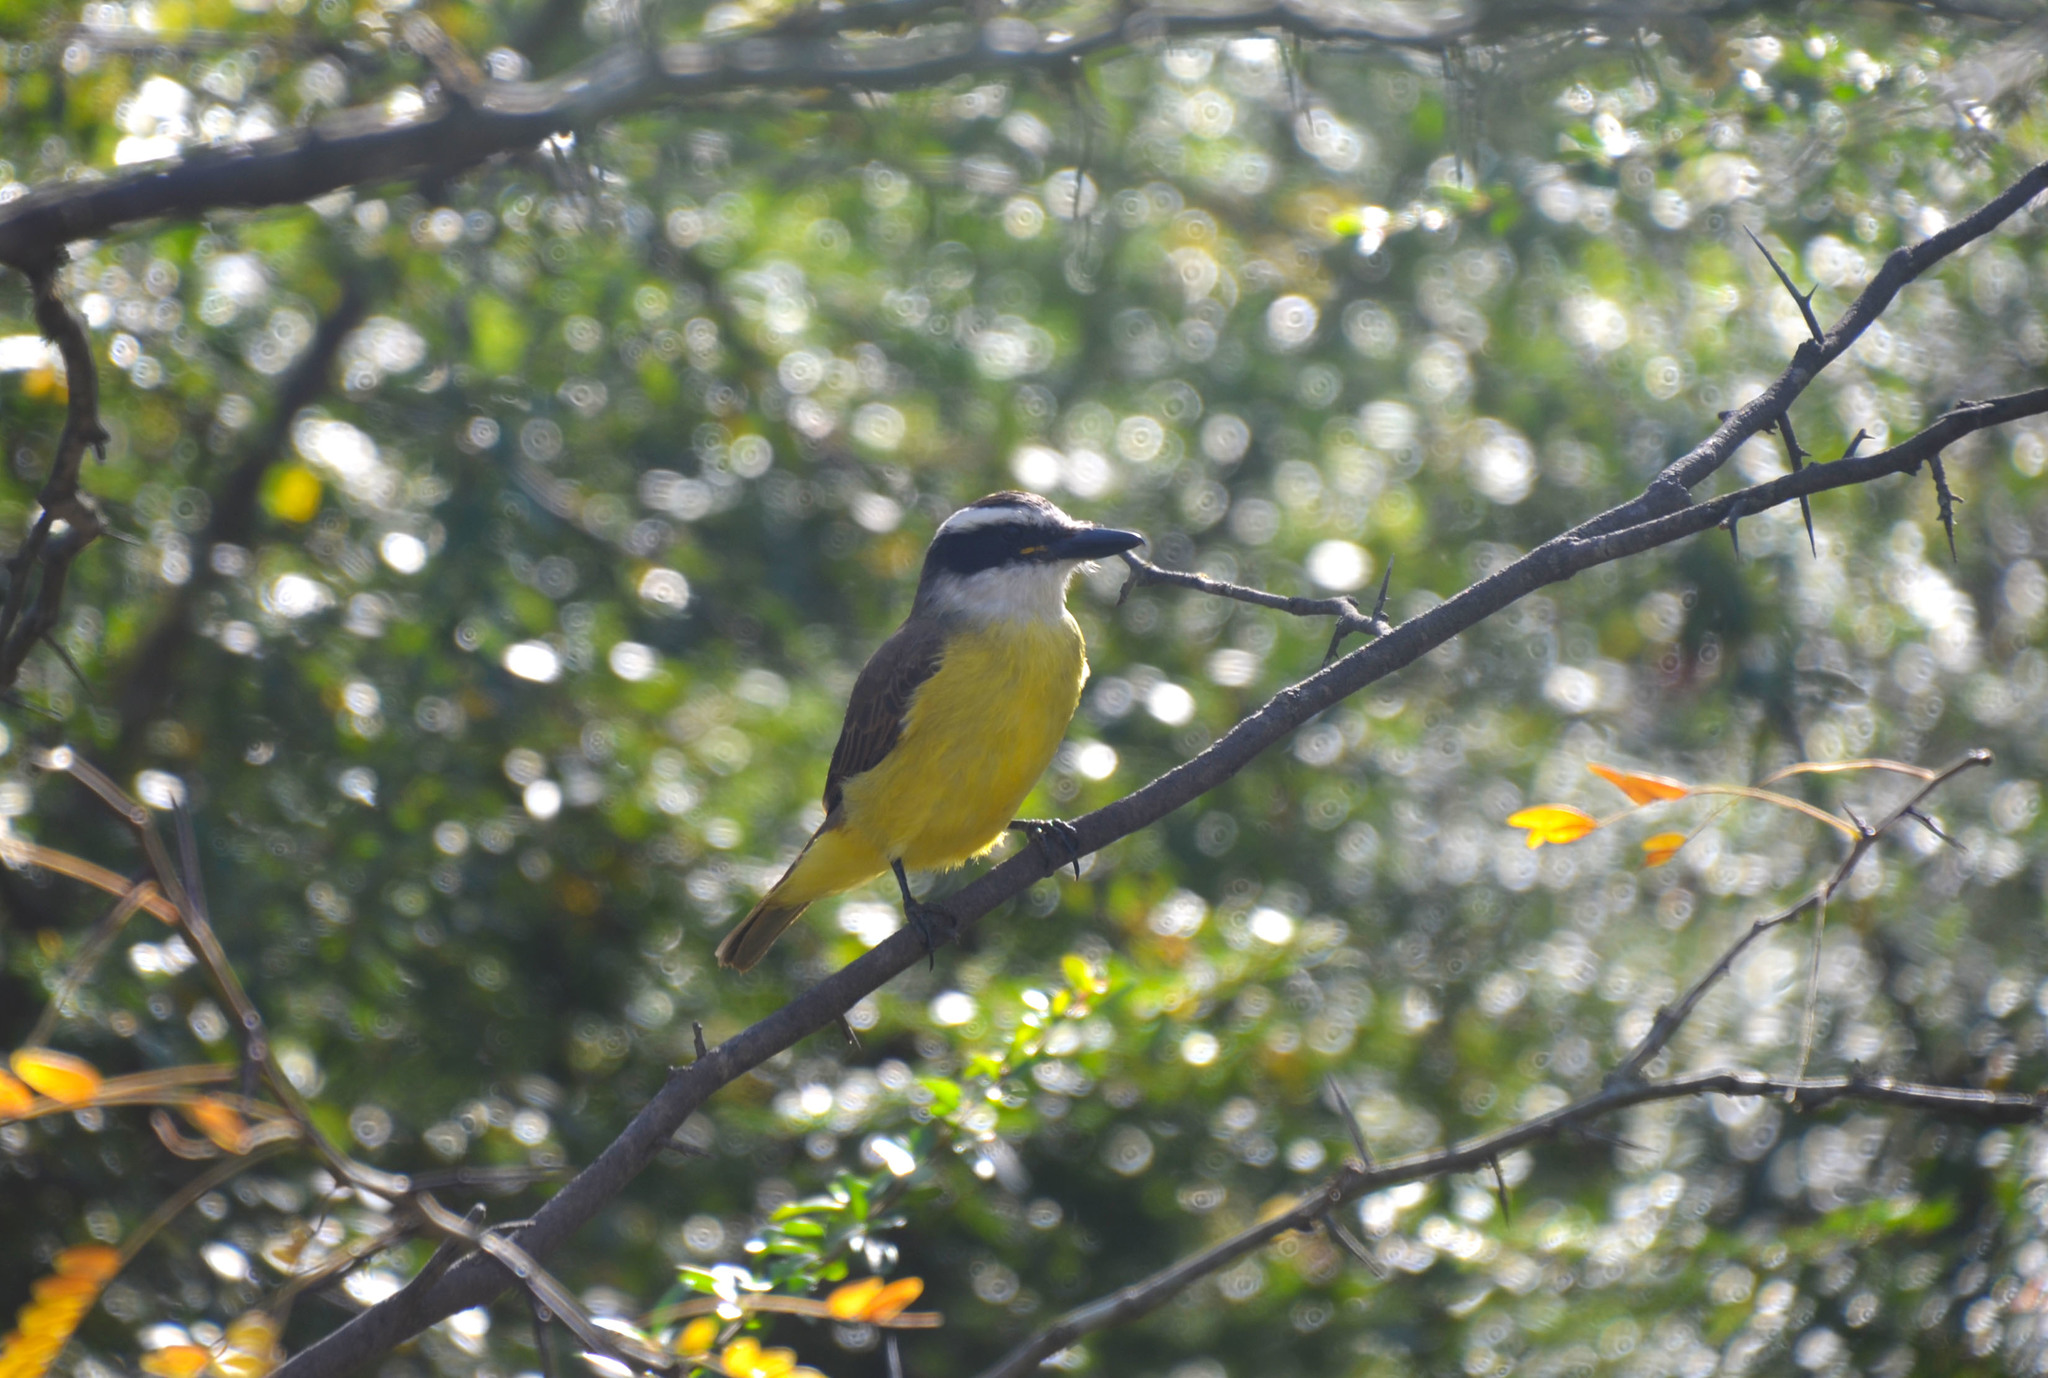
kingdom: Animalia
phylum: Chordata
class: Aves
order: Passeriformes
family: Tyrannidae
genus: Pitangus
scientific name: Pitangus sulphuratus
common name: Great kiskadee
